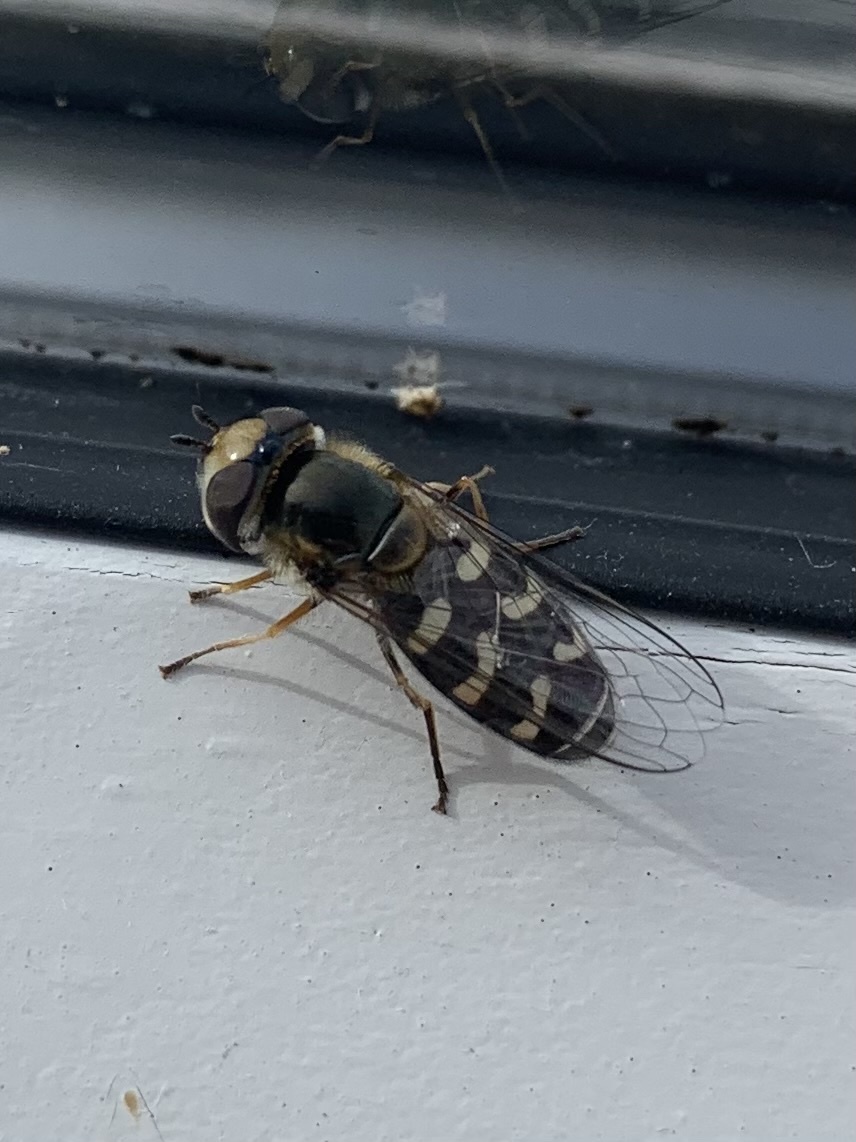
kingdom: Animalia
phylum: Arthropoda
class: Insecta
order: Diptera
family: Syrphidae
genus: Scaeva
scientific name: Scaeva pyrastri
